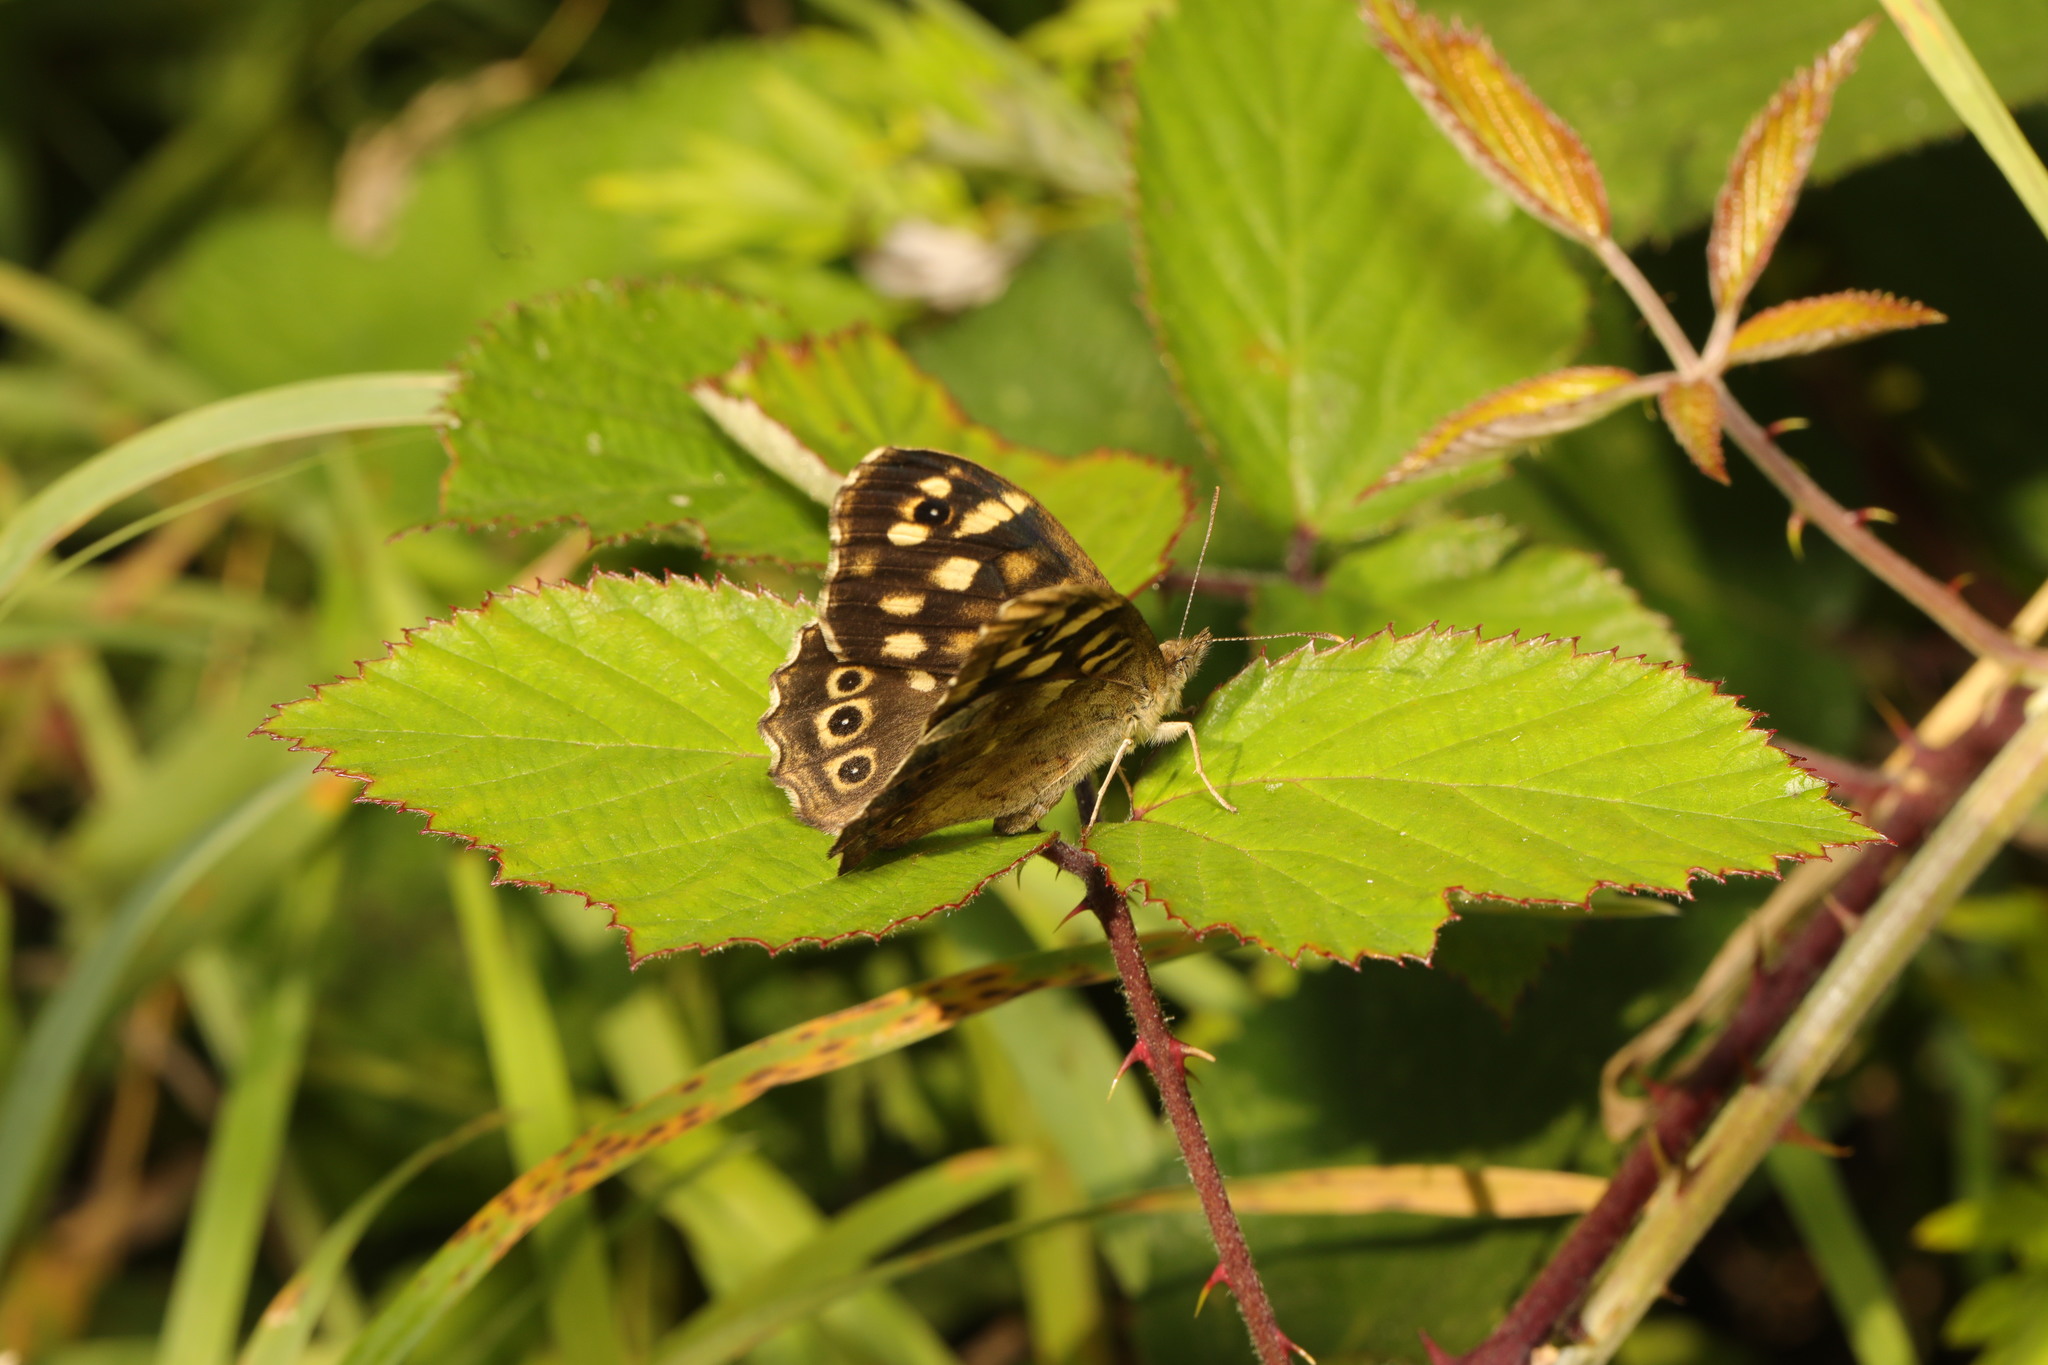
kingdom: Animalia
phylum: Arthropoda
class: Insecta
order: Lepidoptera
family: Nymphalidae
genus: Pararge
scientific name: Pararge aegeria
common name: Speckled wood
